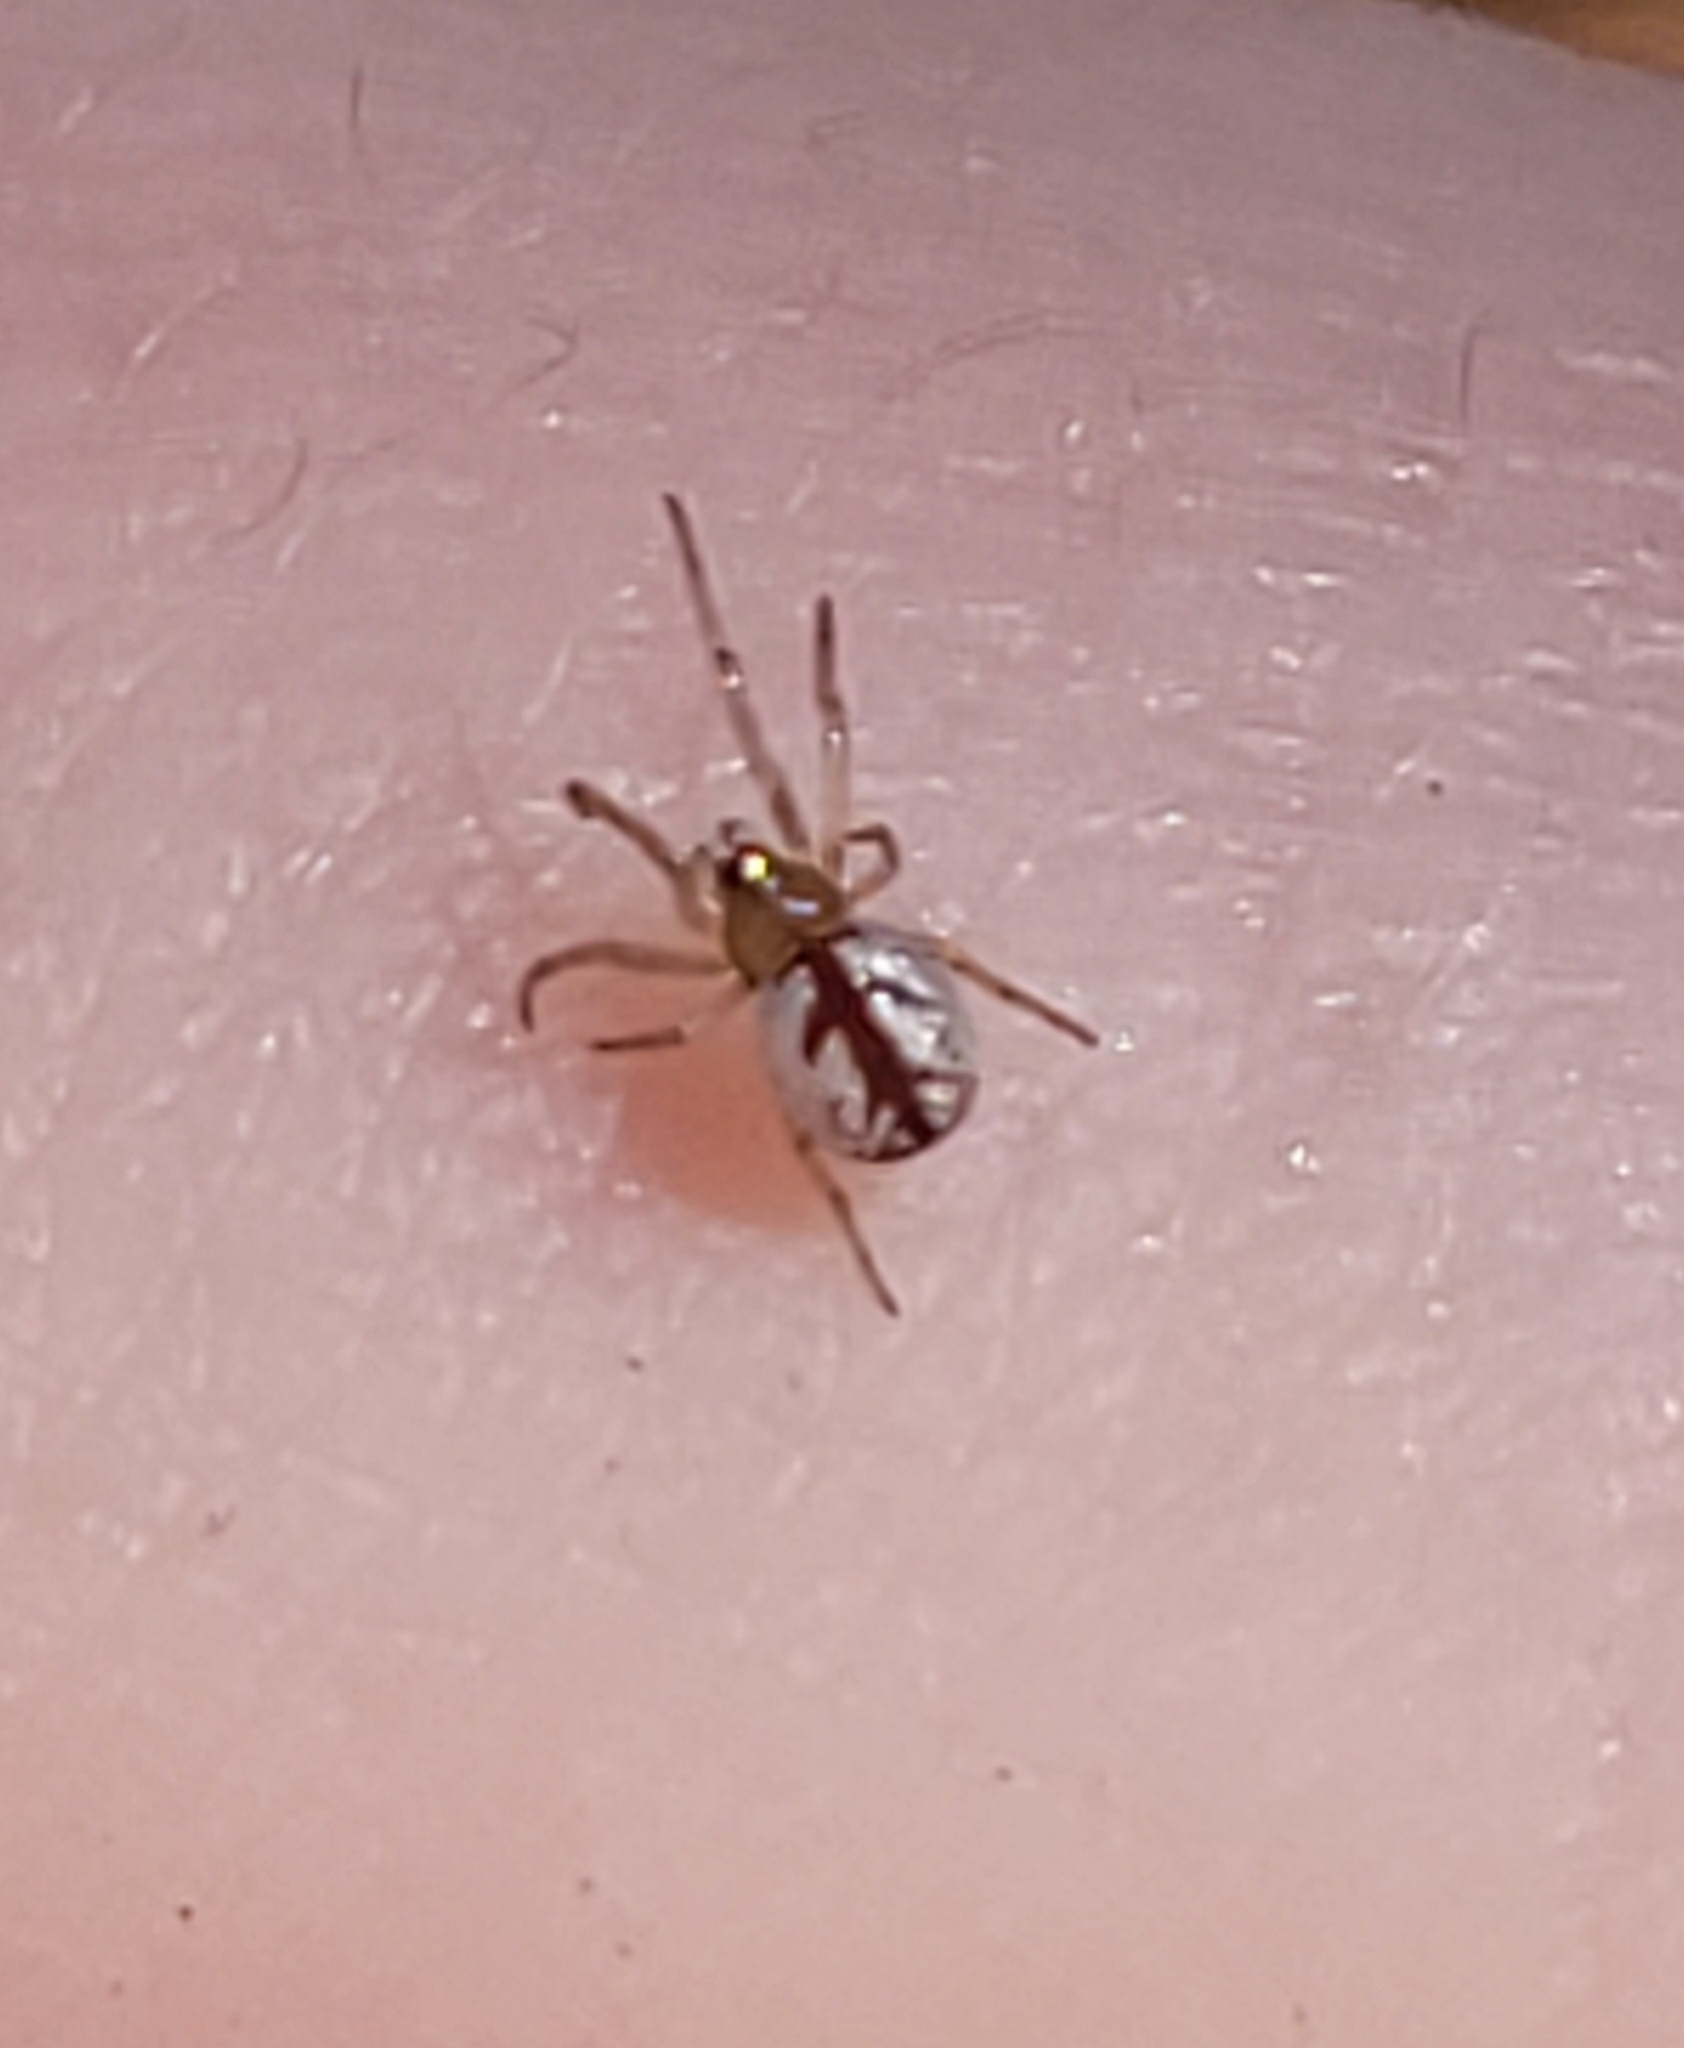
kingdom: Animalia
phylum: Arthropoda
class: Arachnida
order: Araneae
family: Tetragnathidae
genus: Leucauge
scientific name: Leucauge venusta
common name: Longjawed orb weavers
